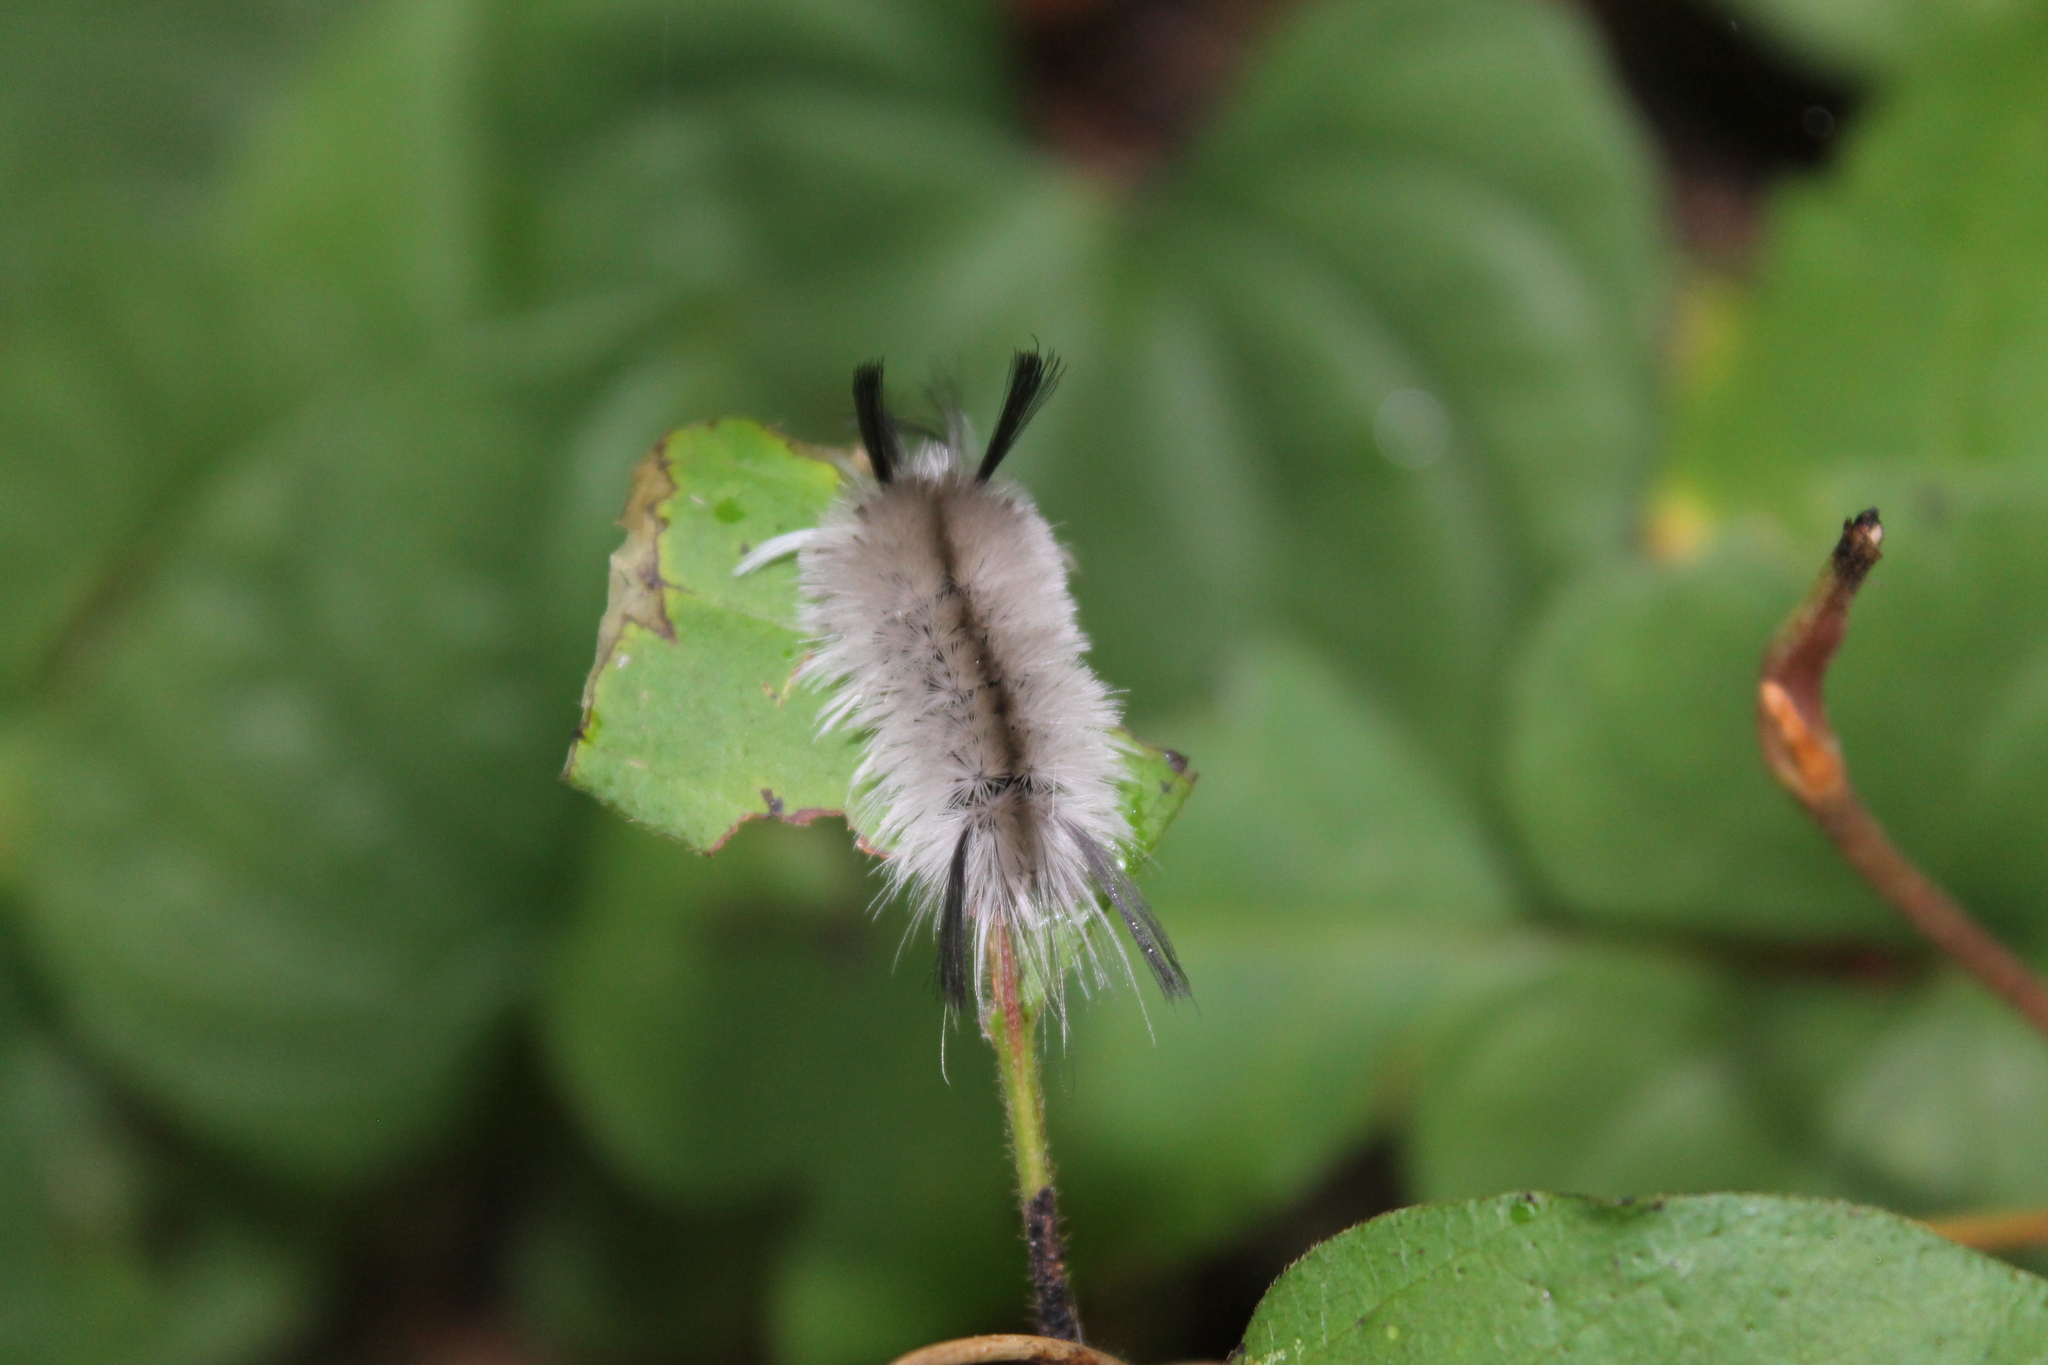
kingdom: Animalia
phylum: Arthropoda
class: Insecta
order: Lepidoptera
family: Erebidae
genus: Halysidota
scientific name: Halysidota tessellaris
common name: Banded tussock moth
